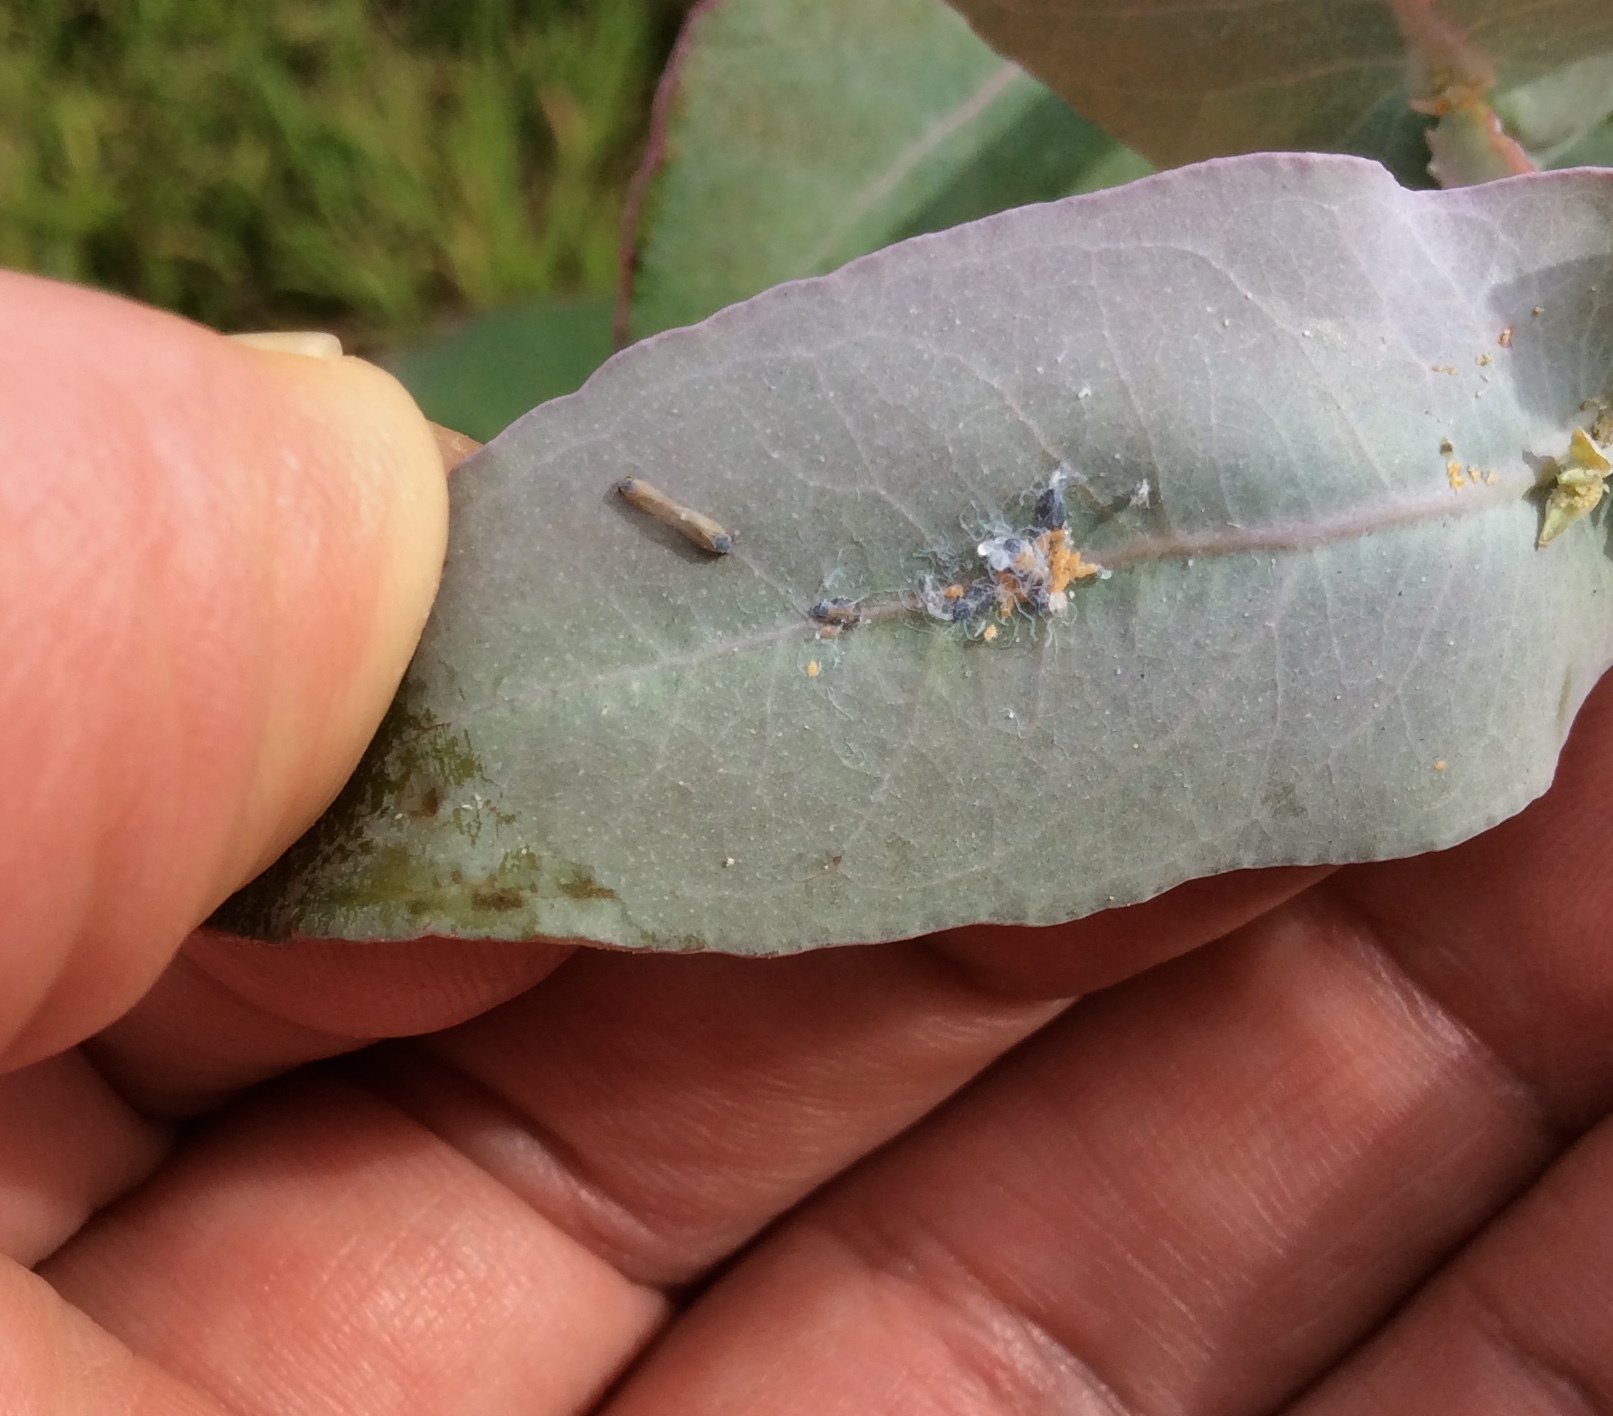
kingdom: Animalia
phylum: Arthropoda
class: Insecta
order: Hemiptera
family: Aphalaridae
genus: Ctenarytaina
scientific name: Ctenarytaina eucalypti
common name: Blue gum psyllid
